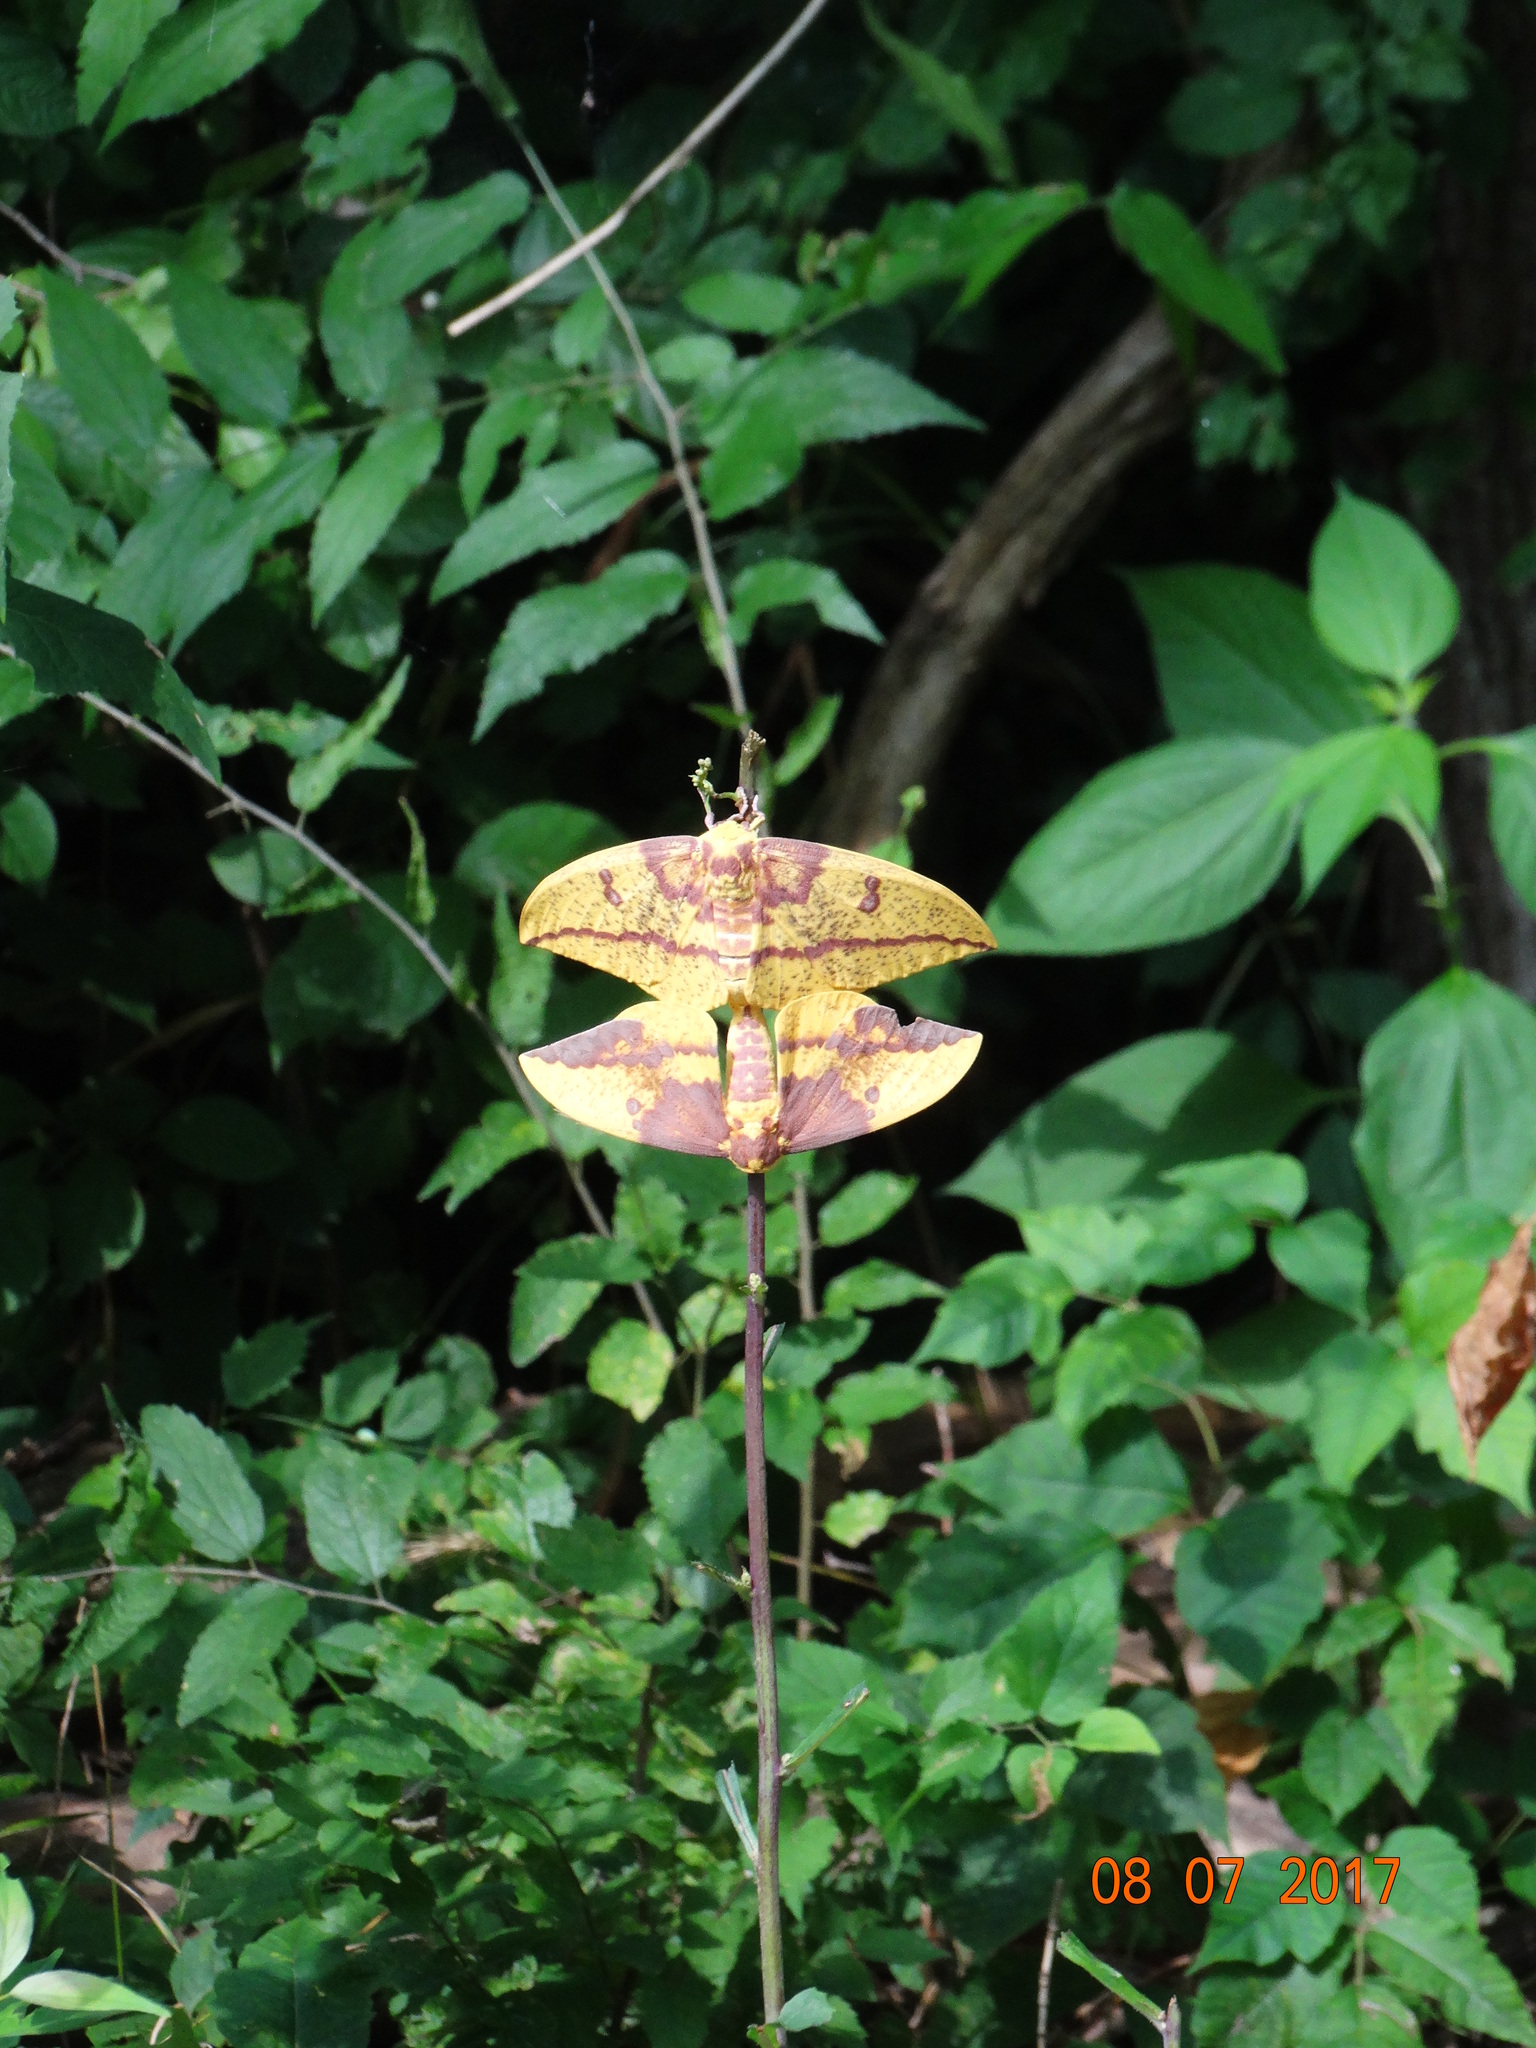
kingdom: Animalia
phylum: Arthropoda
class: Insecta
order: Lepidoptera
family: Saturniidae
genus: Eacles
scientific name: Eacles imperialis
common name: Imperial moth
